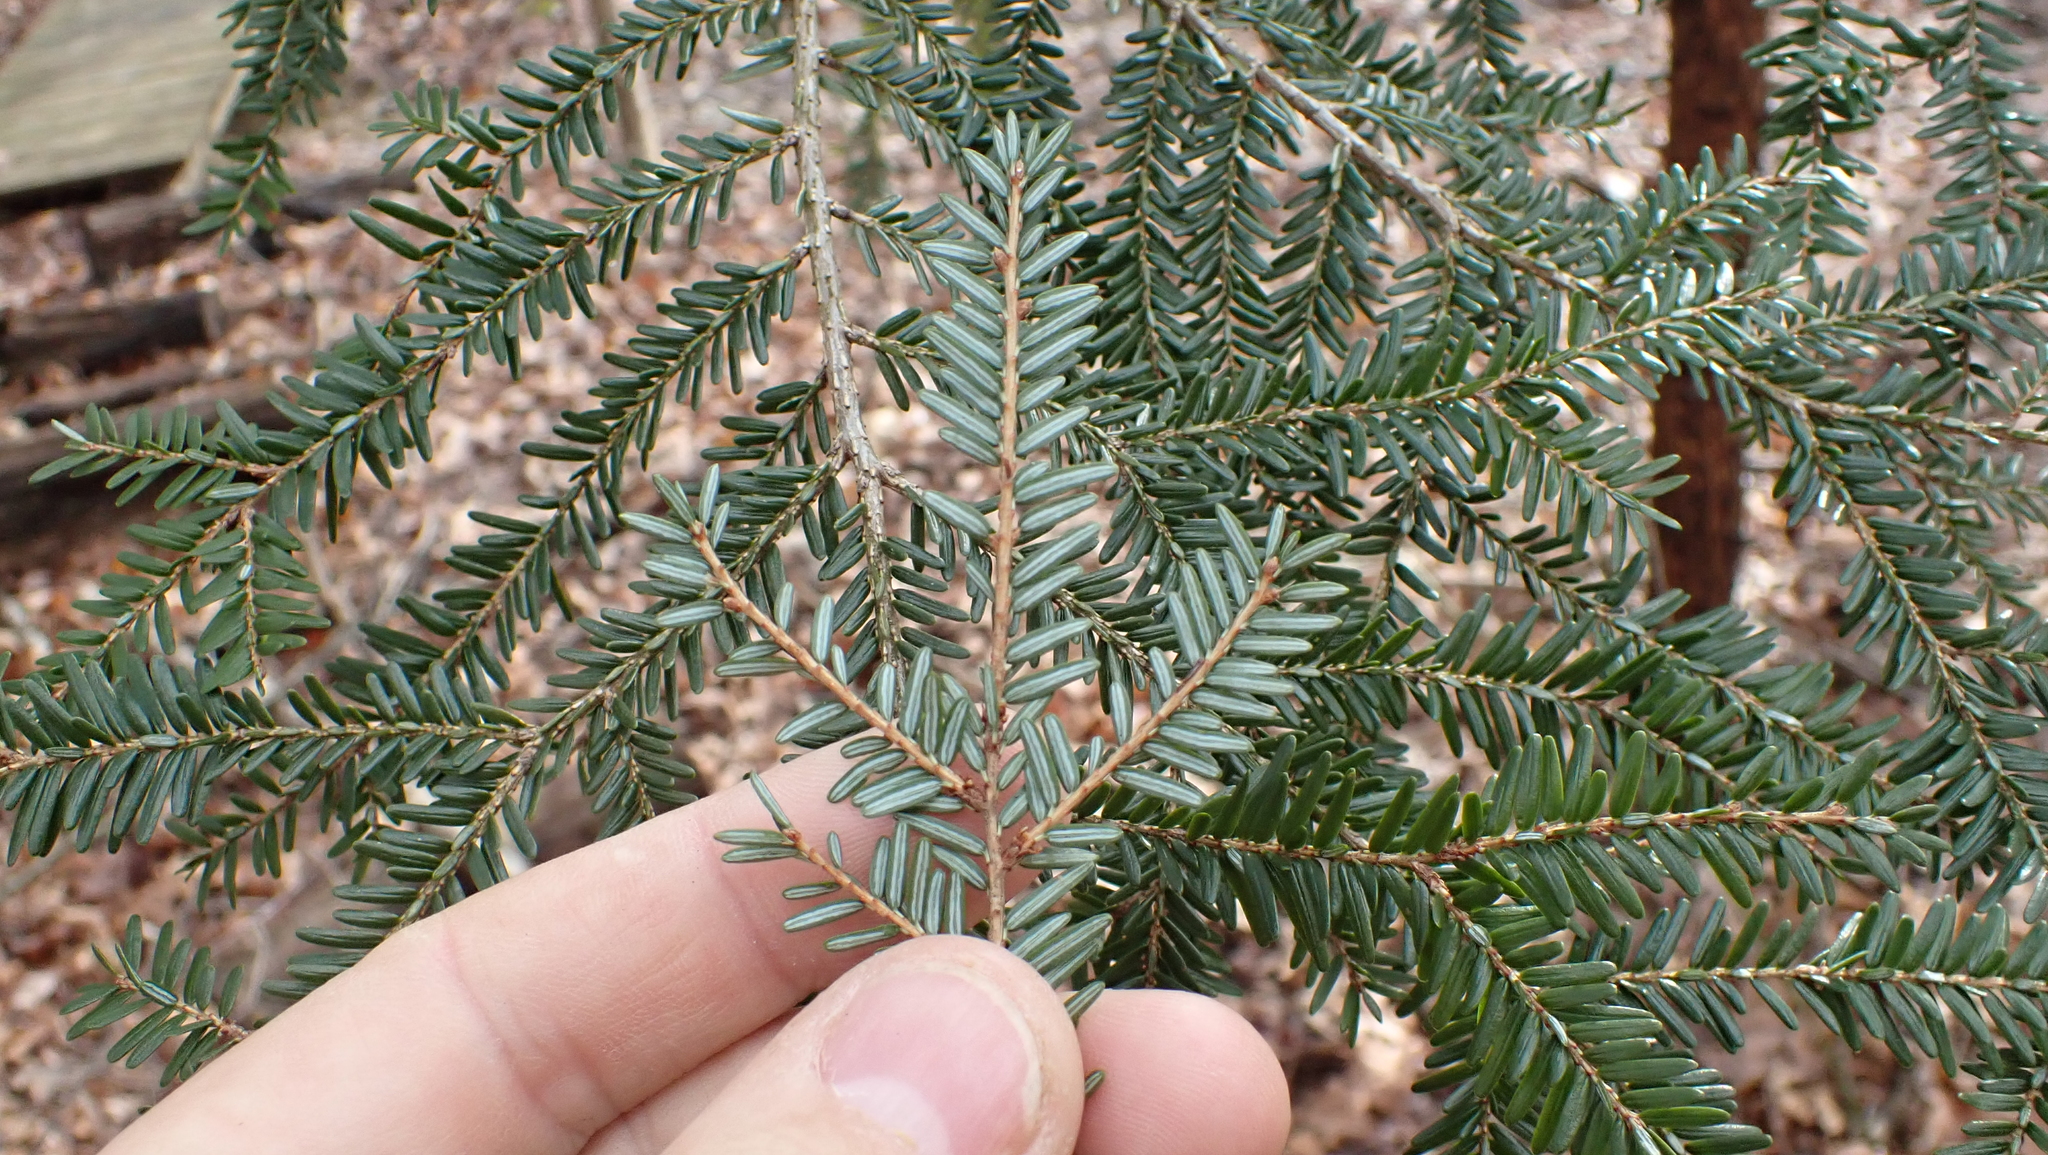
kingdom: Plantae
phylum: Tracheophyta
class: Pinopsida
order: Pinales
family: Pinaceae
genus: Tsuga
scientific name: Tsuga canadensis
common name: Eastern hemlock
